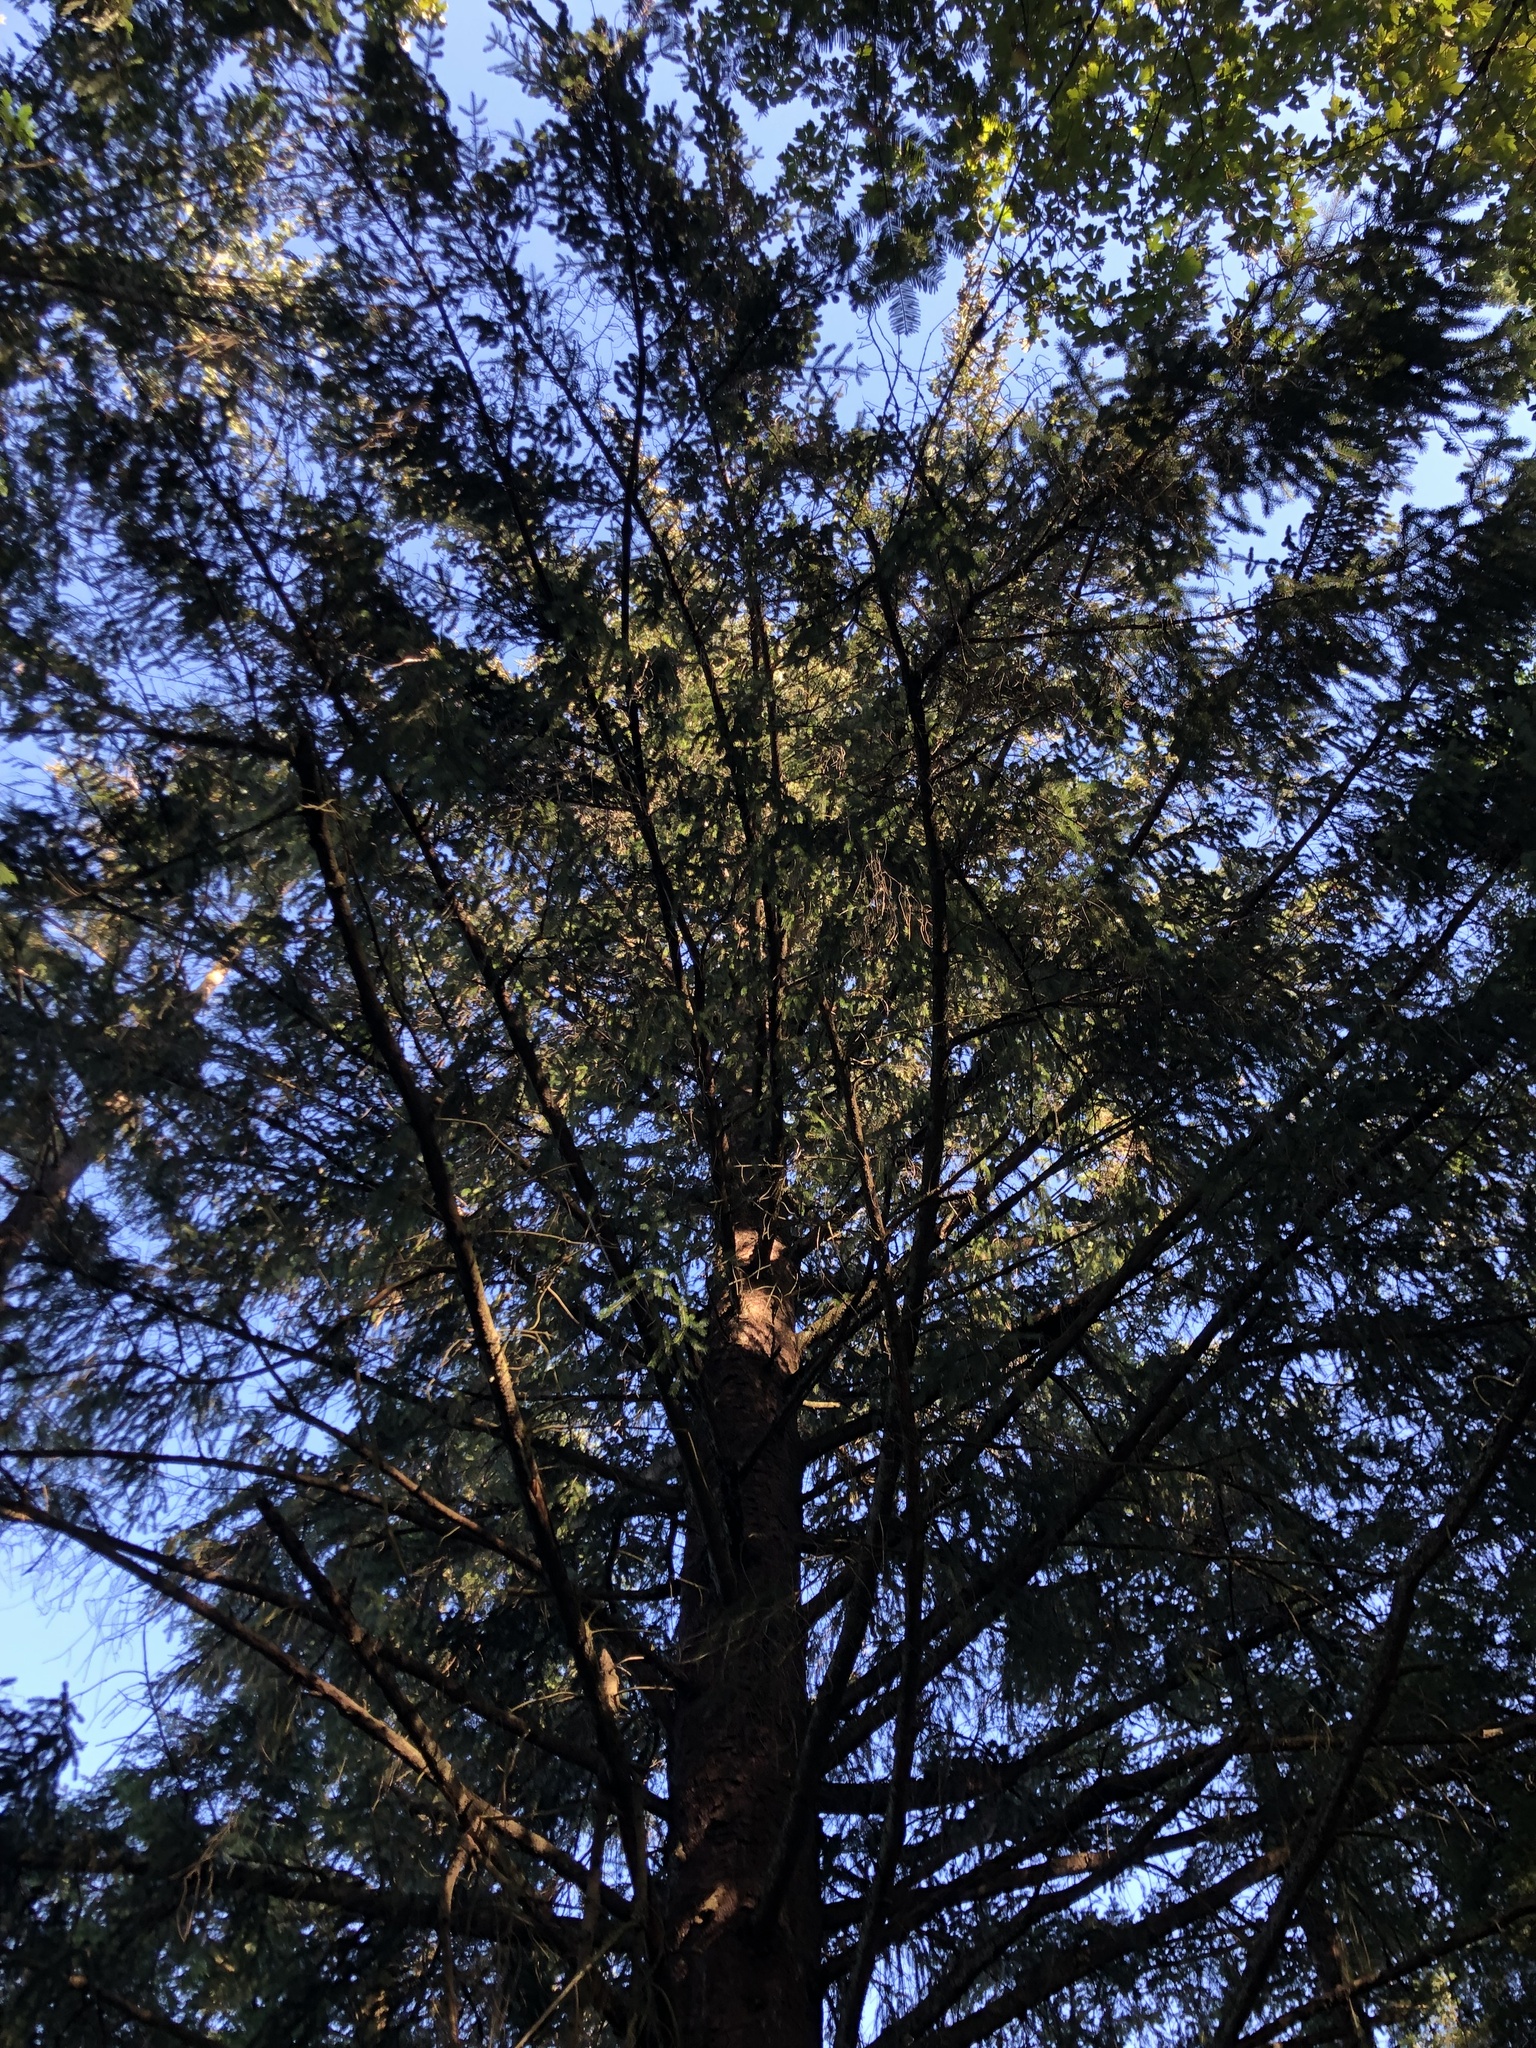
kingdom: Plantae
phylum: Tracheophyta
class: Pinopsida
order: Pinales
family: Pinaceae
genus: Picea
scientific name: Picea sitchensis
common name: Sitka spruce
